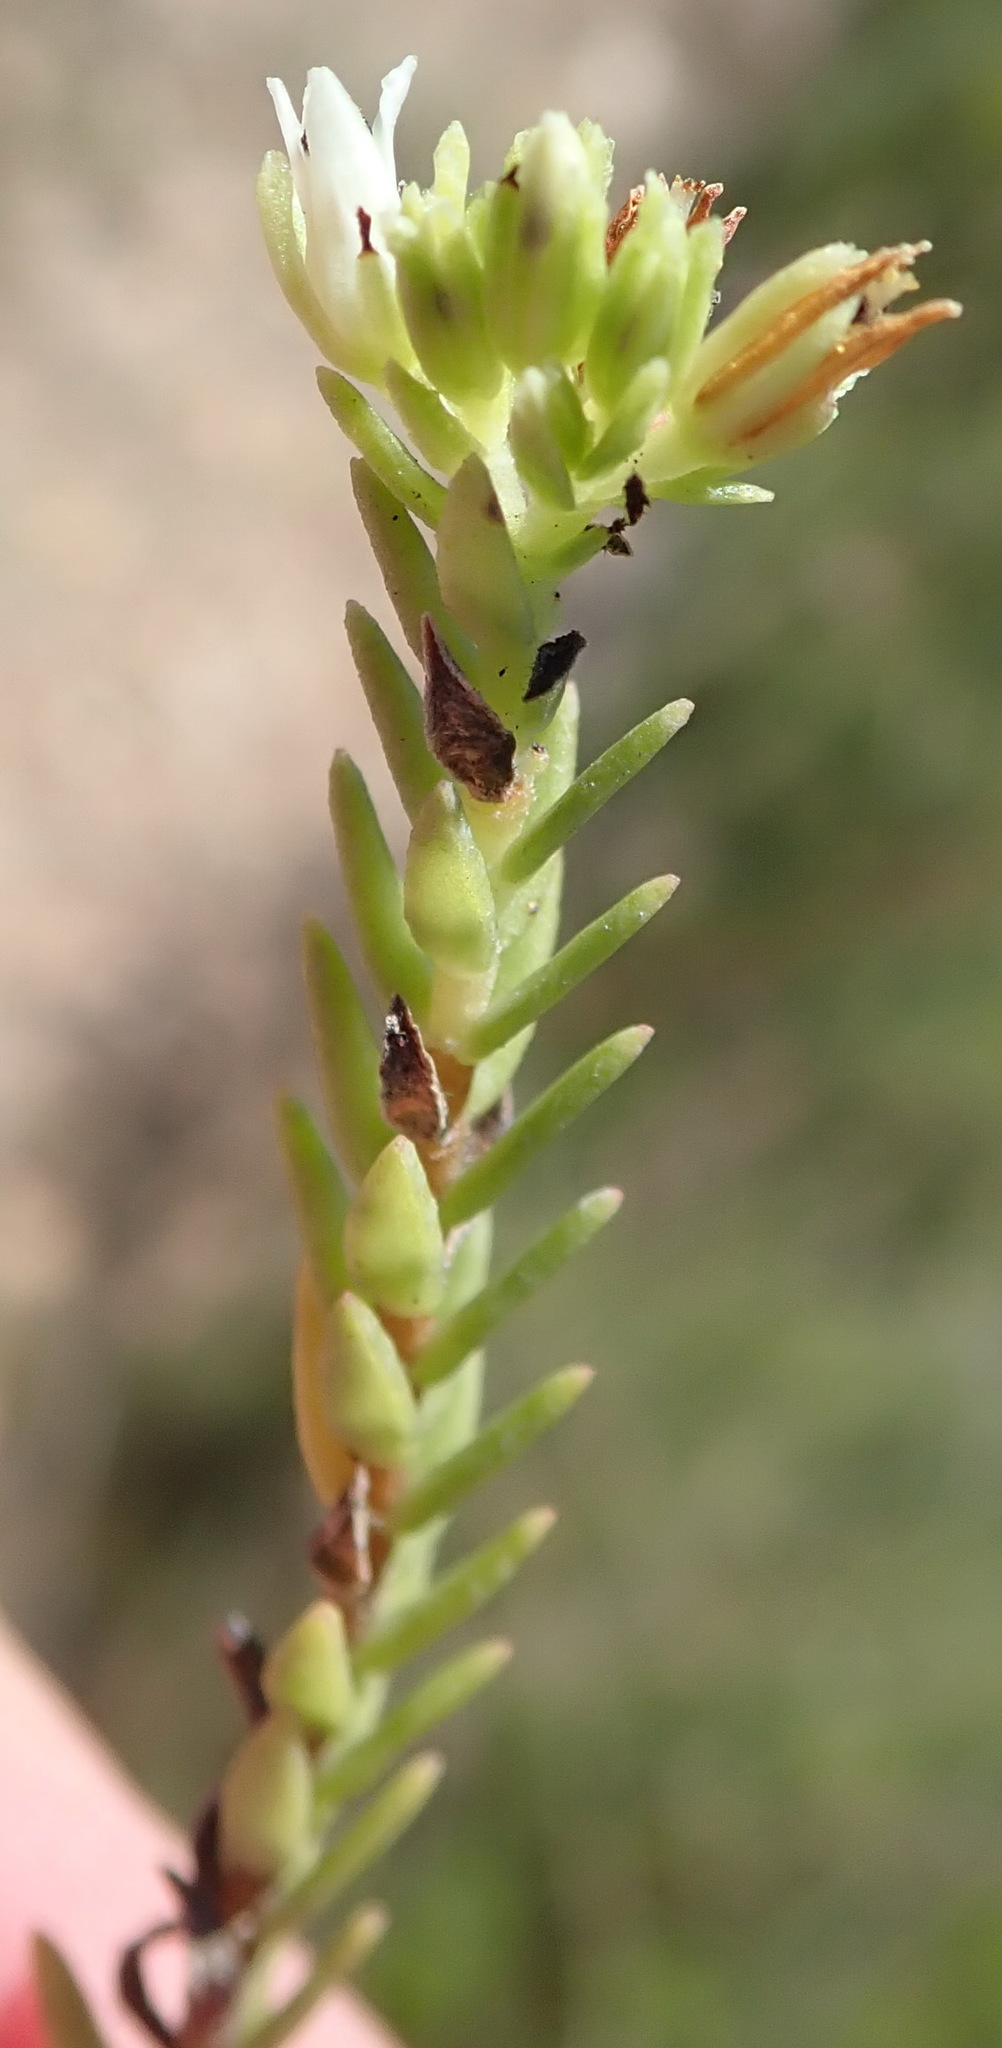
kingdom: Plantae
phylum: Tracheophyta
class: Magnoliopsida
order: Saxifragales
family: Crassulaceae
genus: Crassula
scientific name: Crassula ericoides
